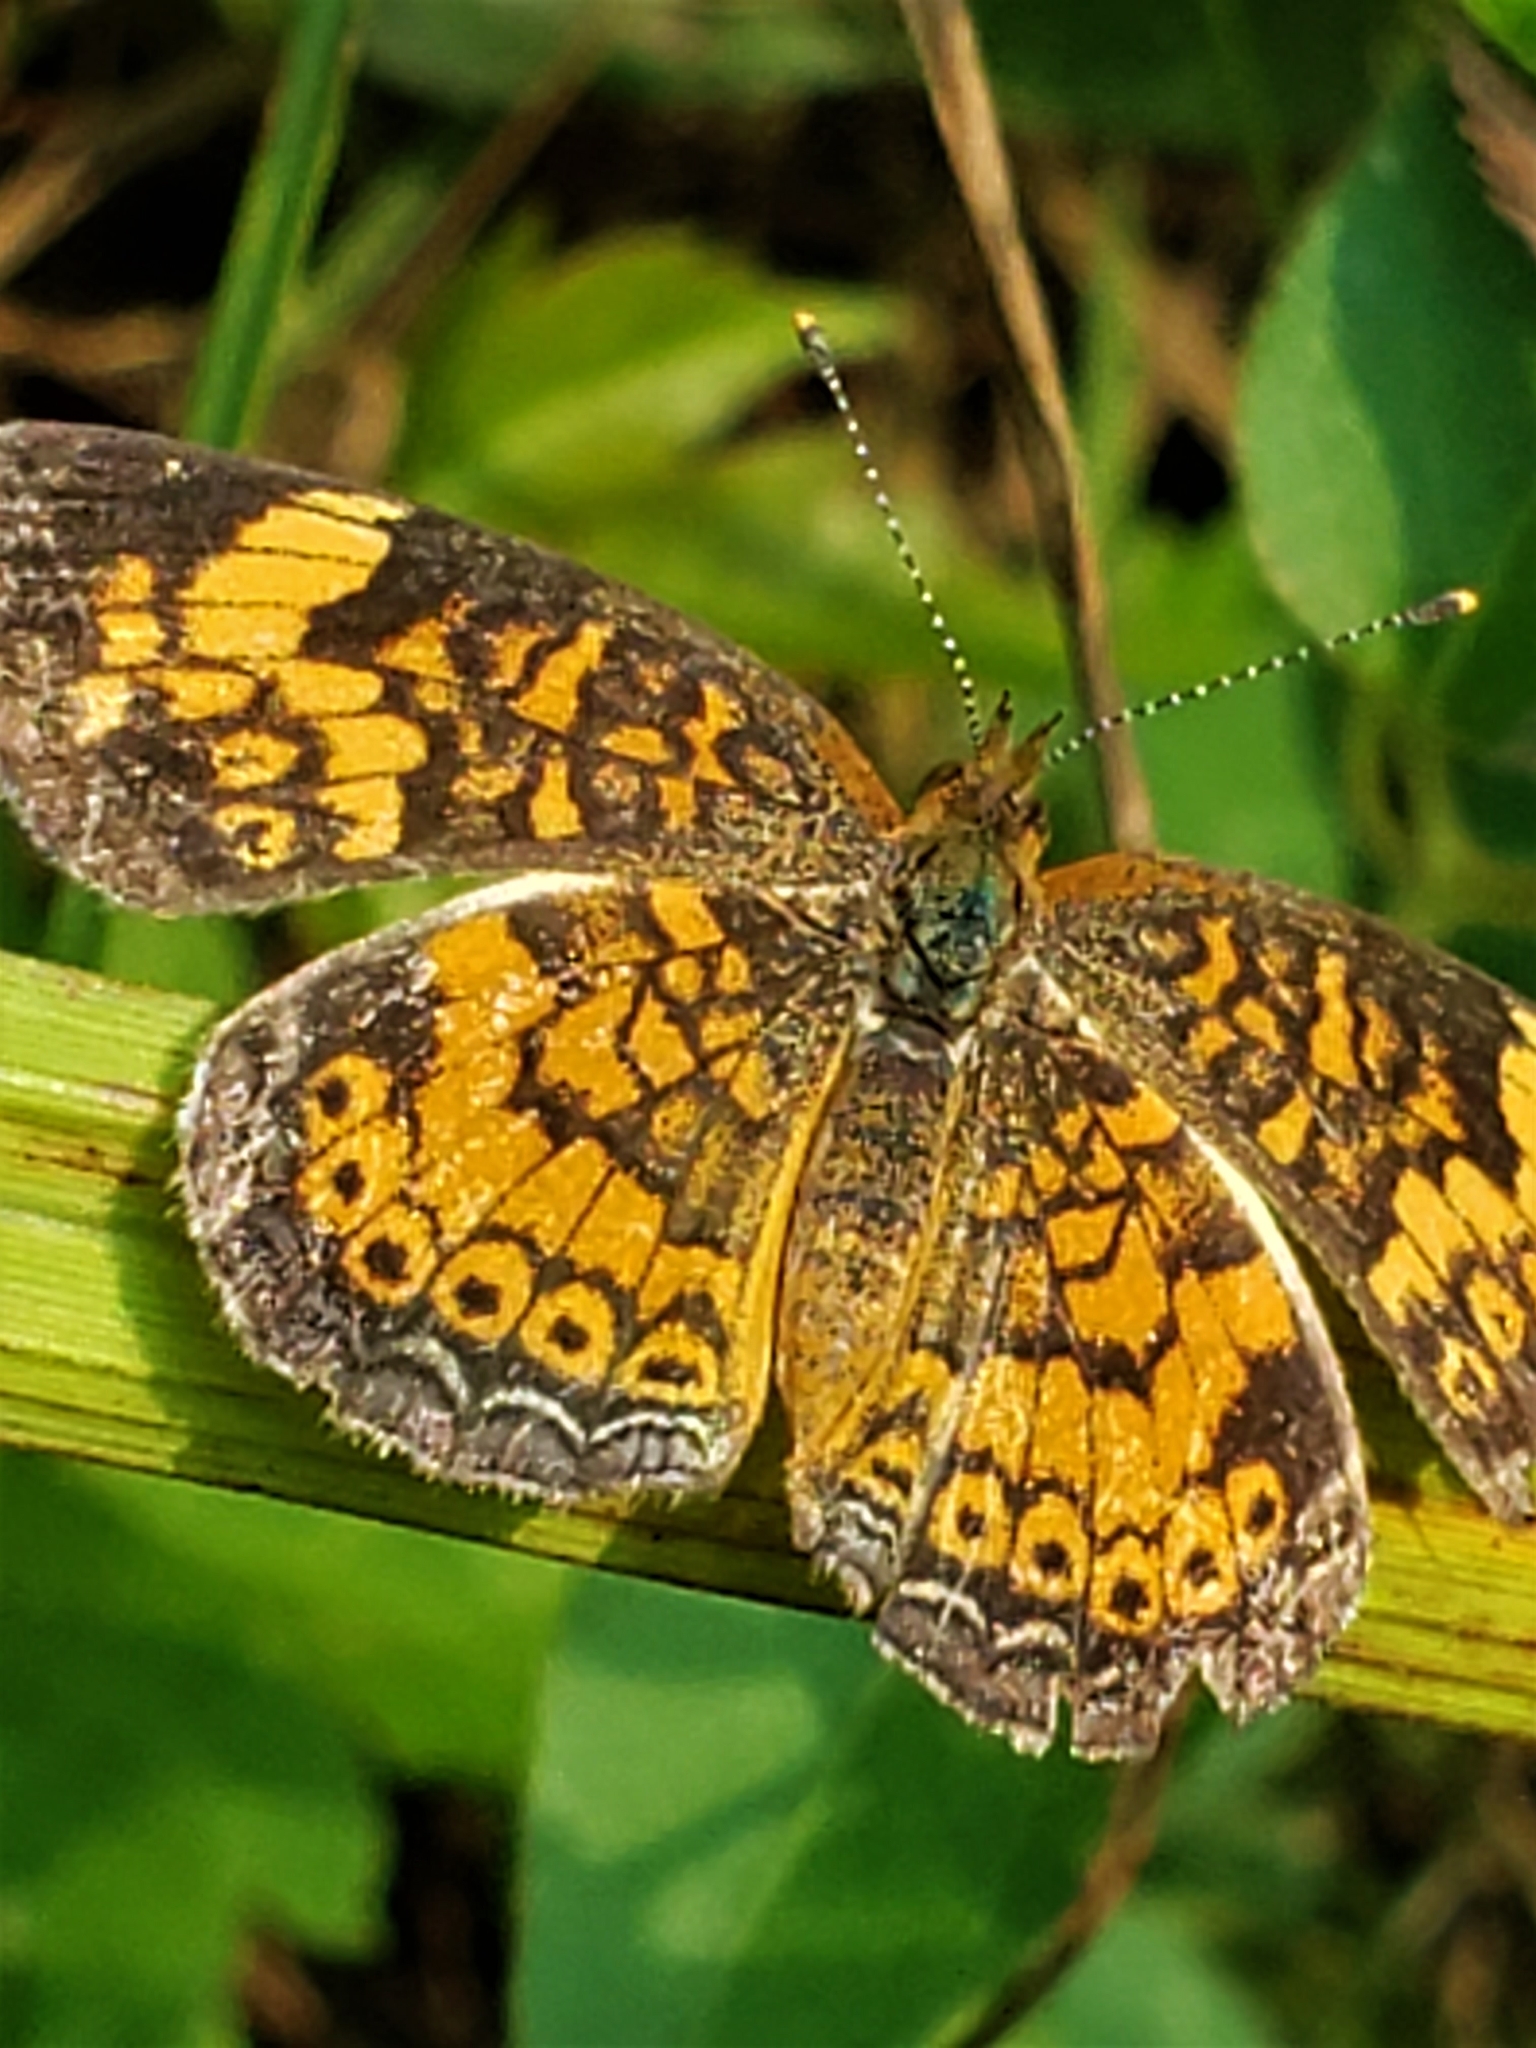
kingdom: Animalia
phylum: Arthropoda
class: Insecta
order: Lepidoptera
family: Nymphalidae
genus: Phyciodes
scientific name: Phyciodes tharos
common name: Pearl crescent
